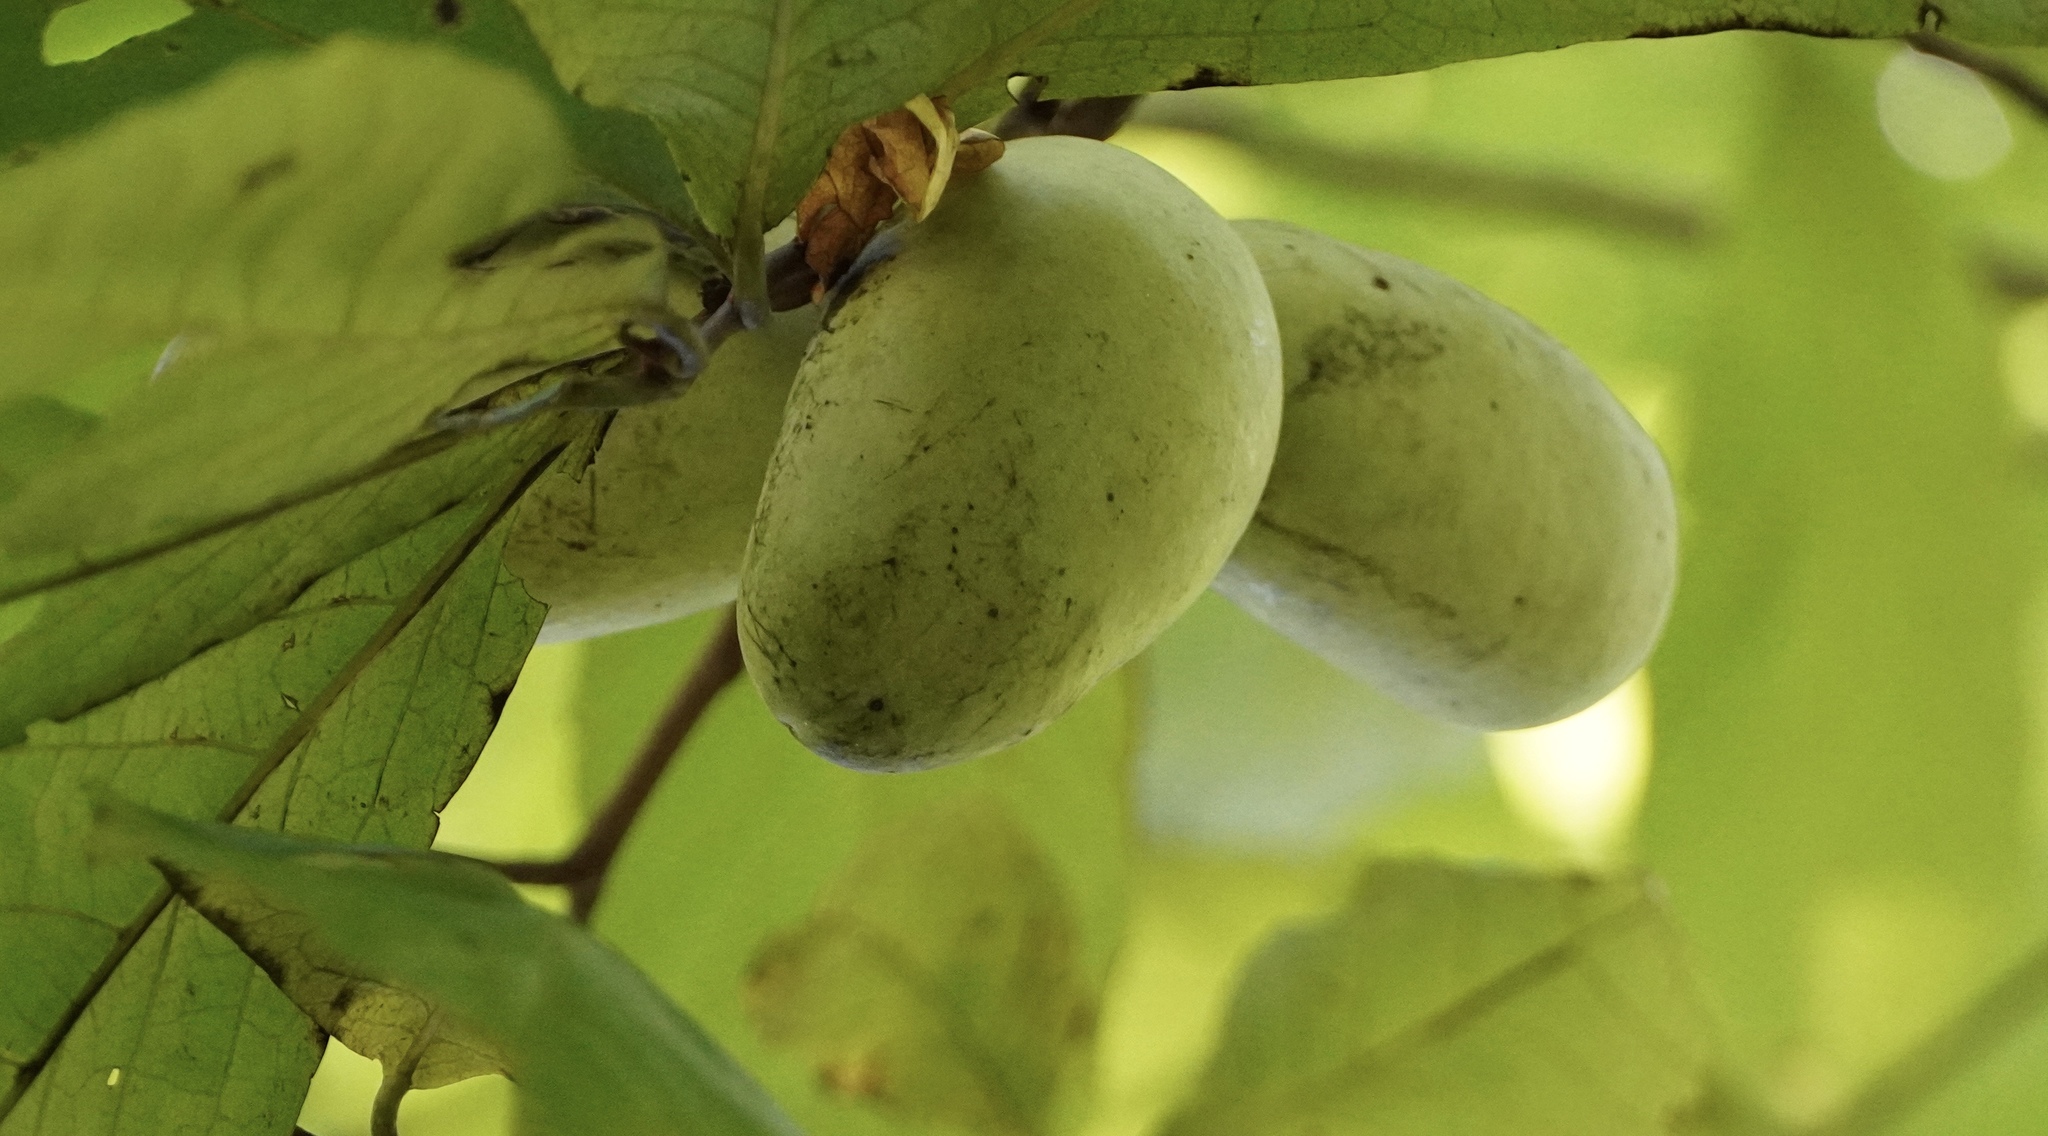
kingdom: Plantae
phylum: Tracheophyta
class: Magnoliopsida
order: Magnoliales
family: Annonaceae
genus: Asimina
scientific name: Asimina triloba
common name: Dog-banana
